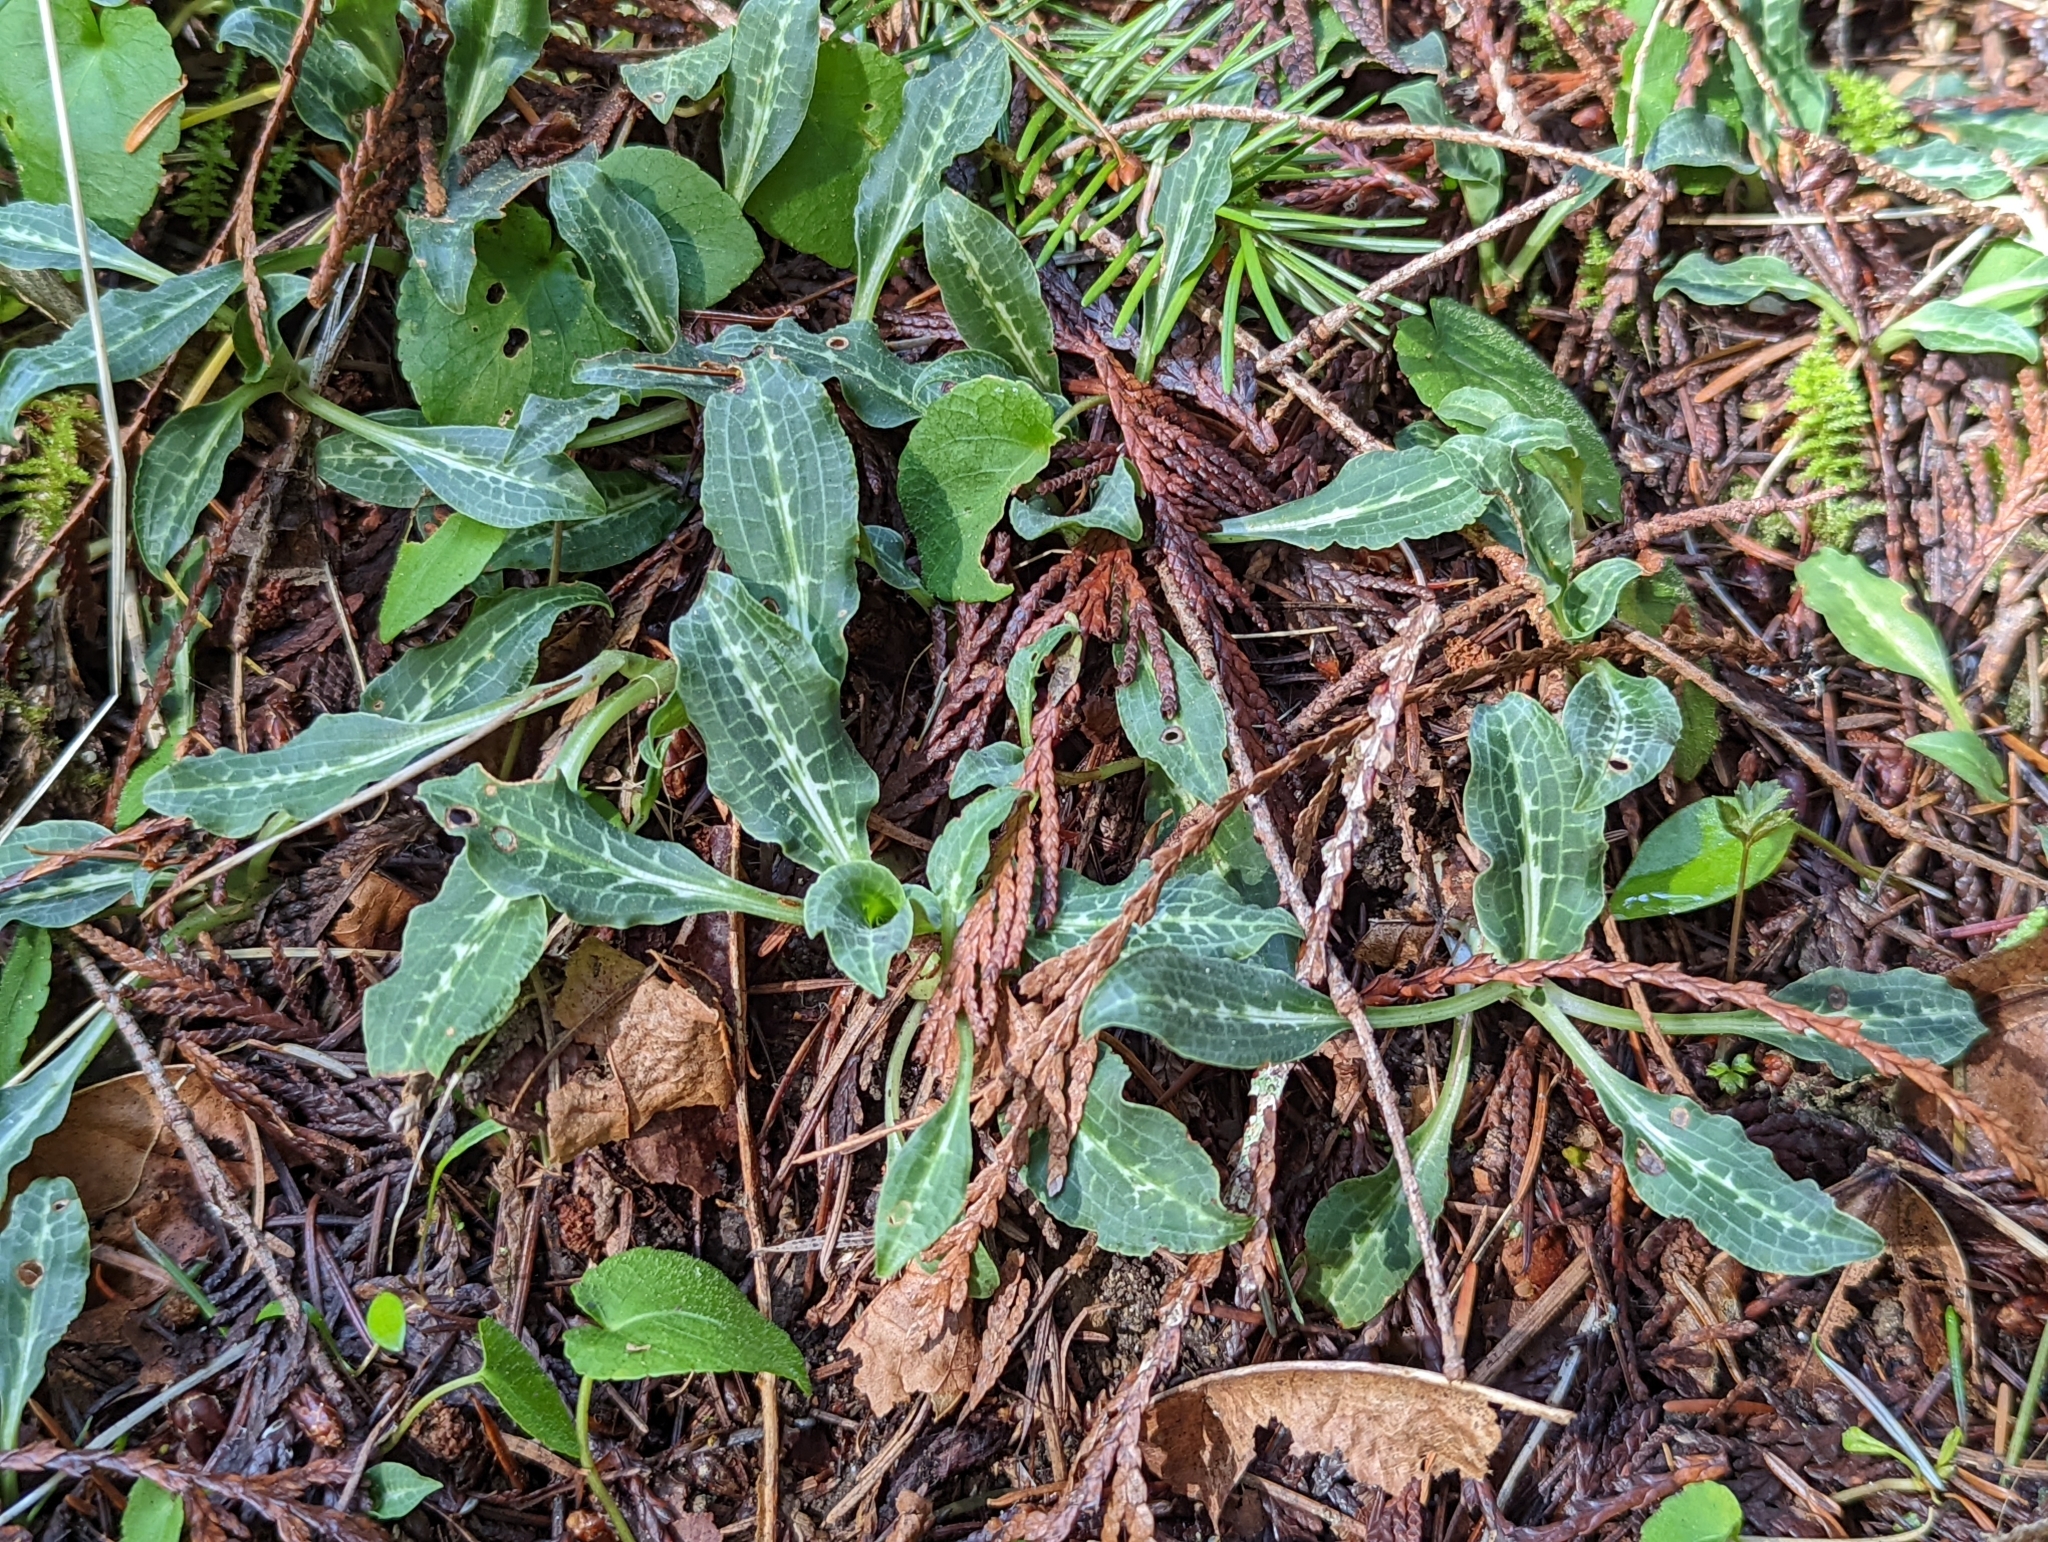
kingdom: Plantae
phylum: Tracheophyta
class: Liliopsida
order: Asparagales
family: Orchidaceae
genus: Goodyera
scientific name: Goodyera oblongifolia
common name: Giant rattlesnake-plantain
